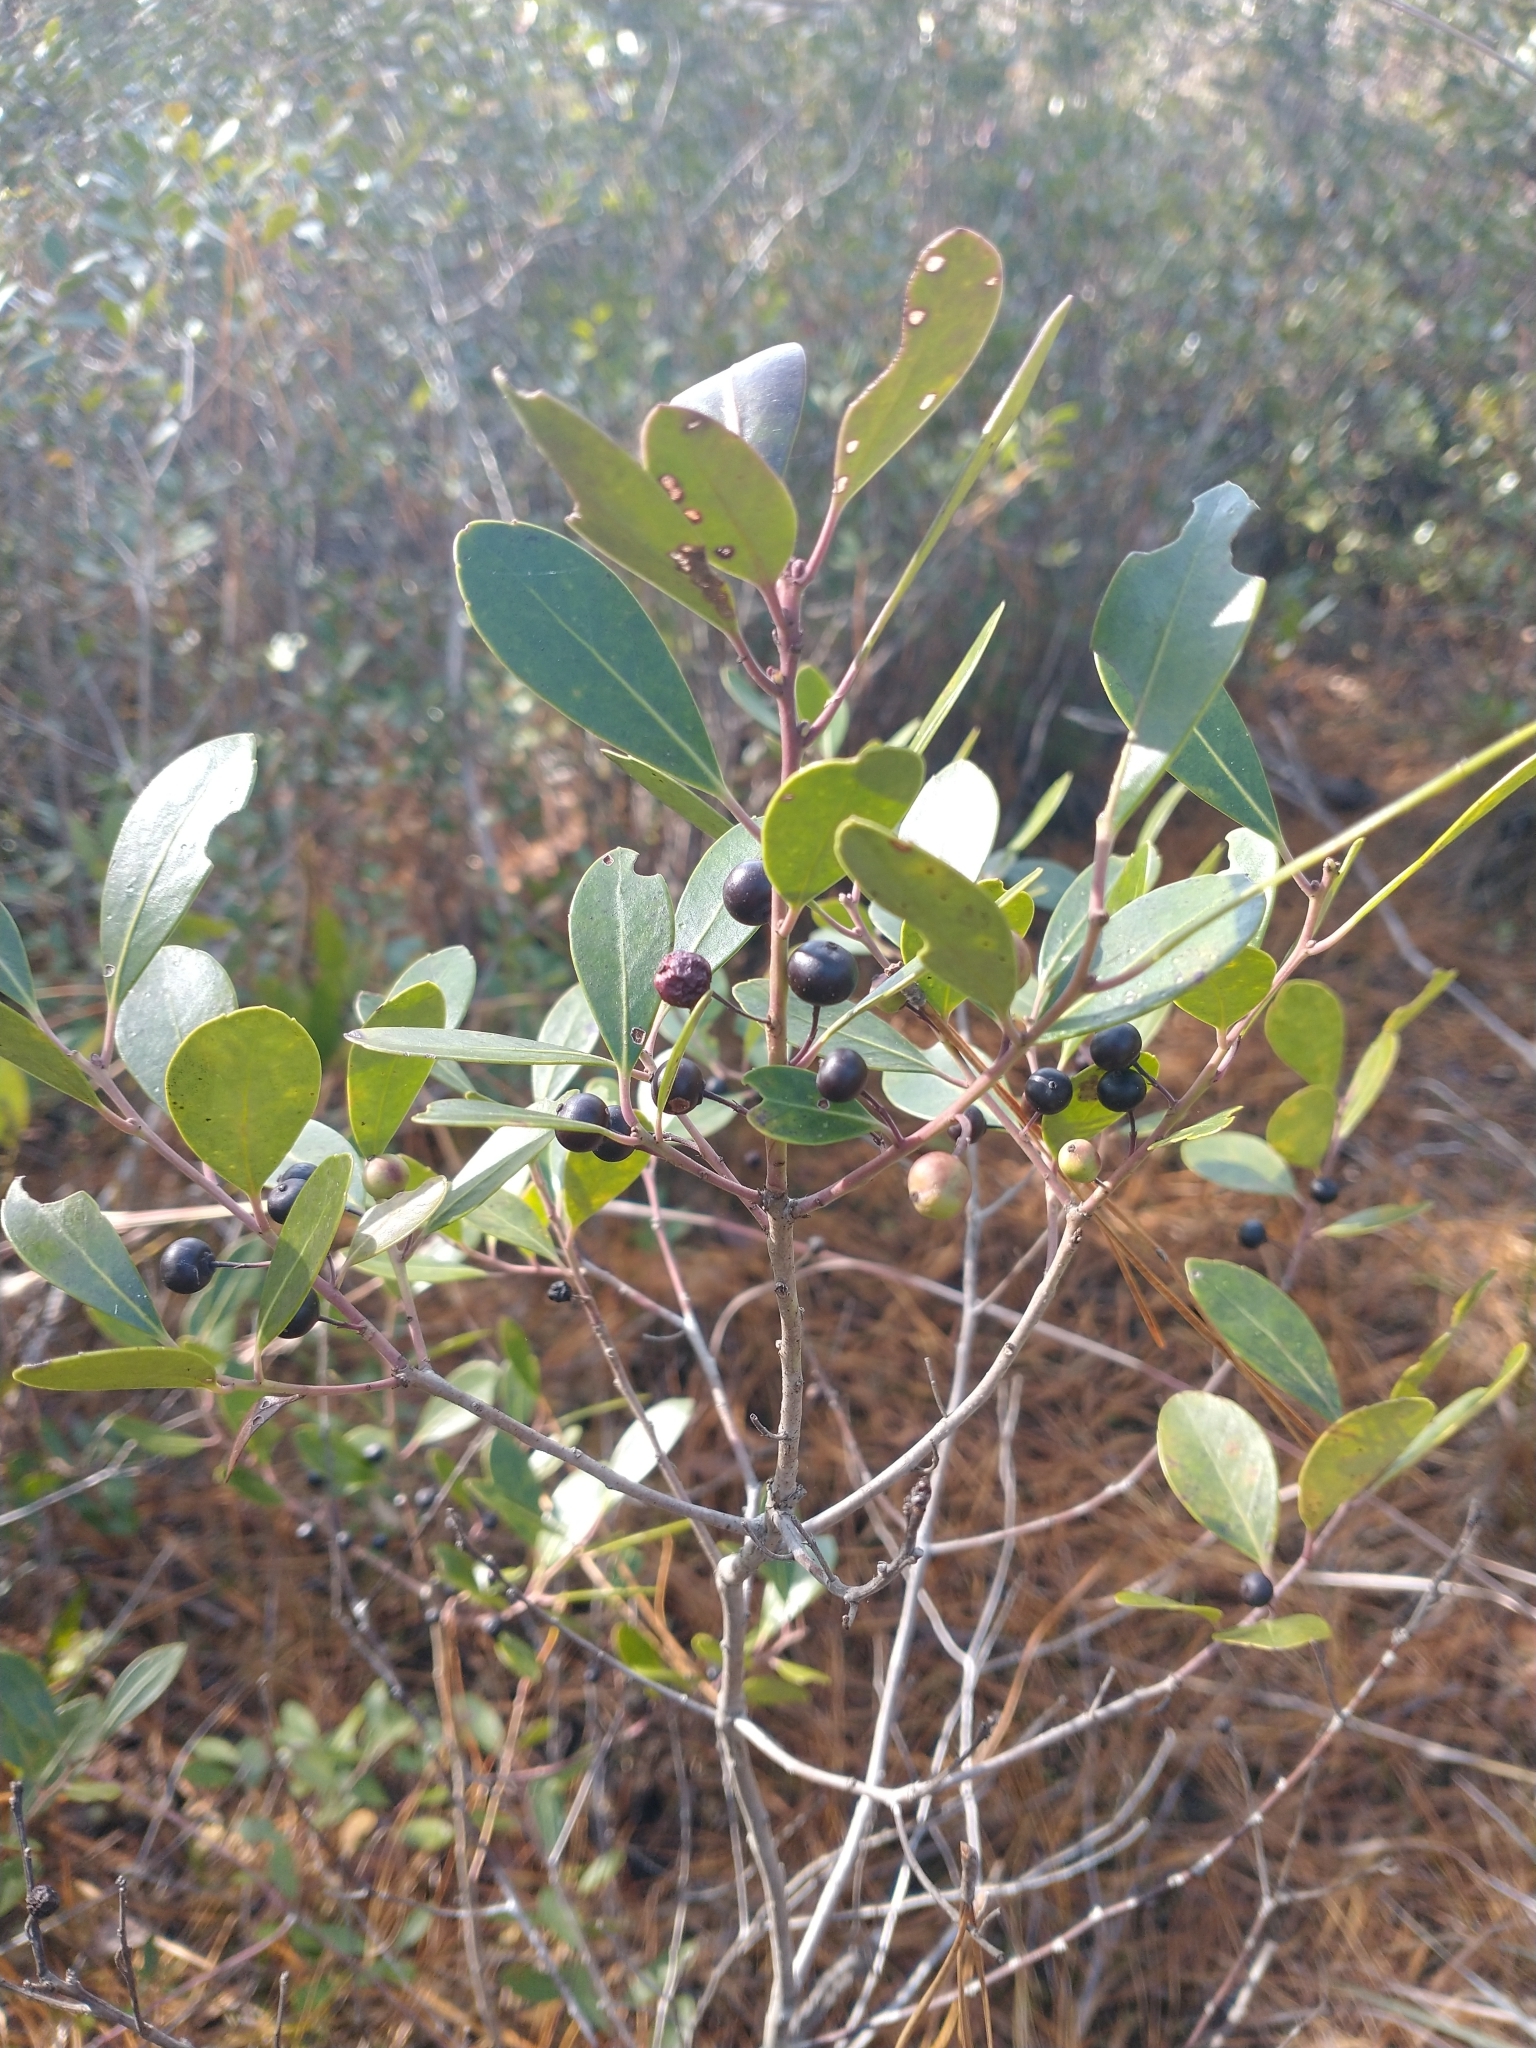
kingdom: Plantae
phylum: Tracheophyta
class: Magnoliopsida
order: Aquifoliales
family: Aquifoliaceae
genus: Ilex
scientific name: Ilex glabra
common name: Bitter gallberry
